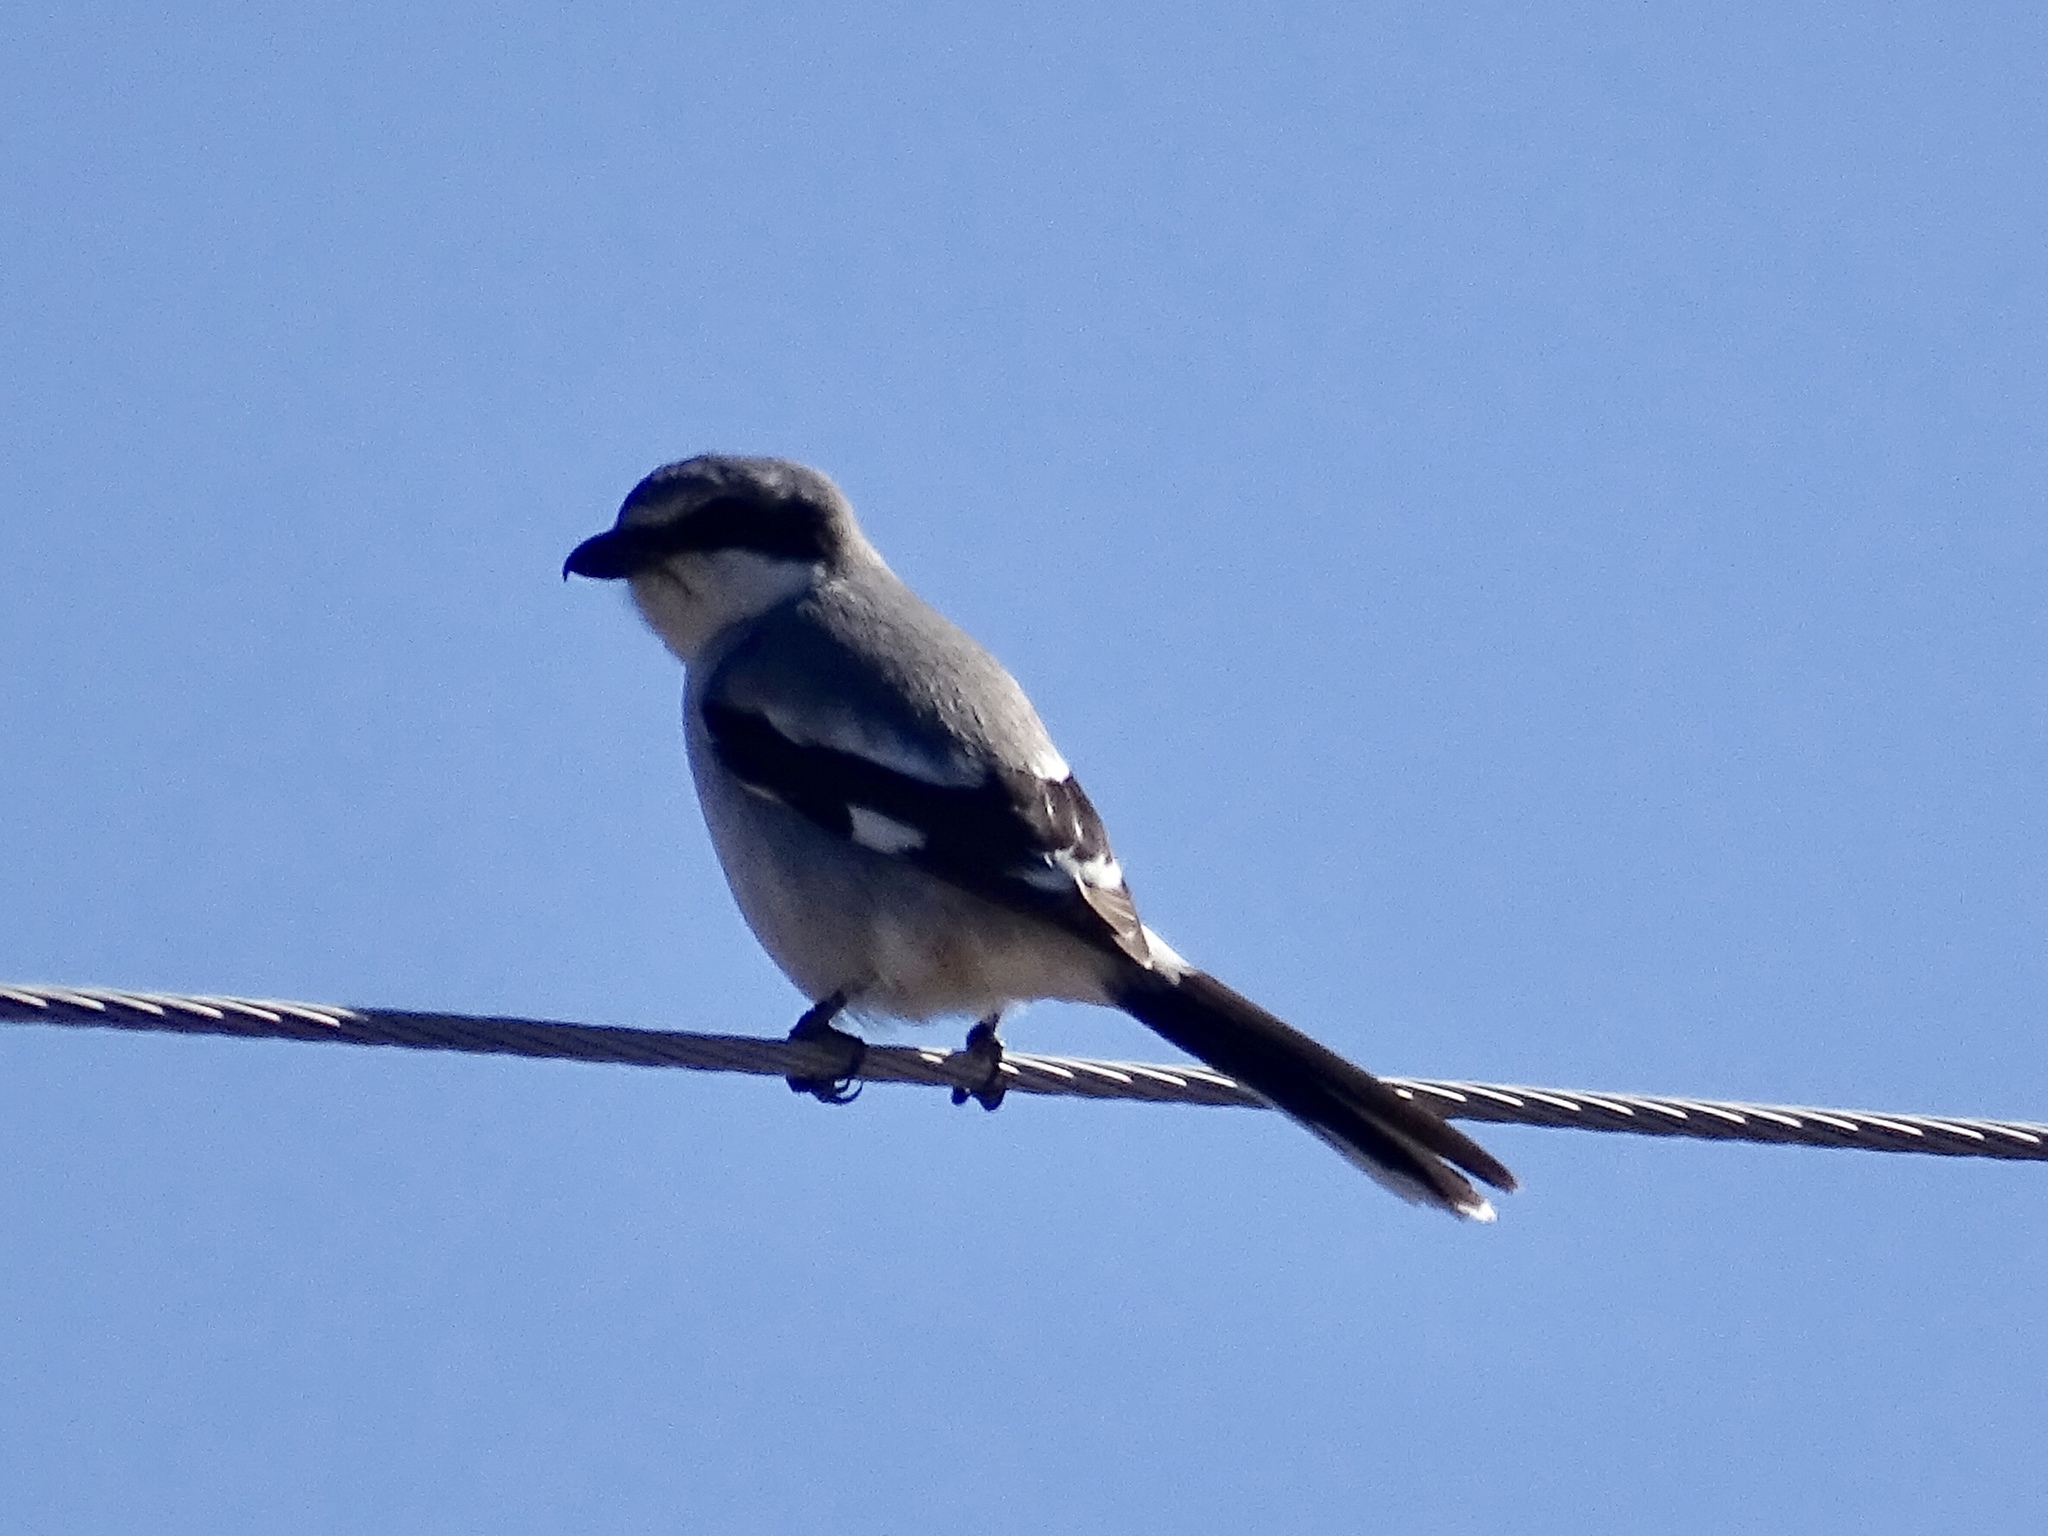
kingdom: Animalia
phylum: Chordata
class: Aves
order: Passeriformes
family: Laniidae
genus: Lanius
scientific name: Lanius ludovicianus
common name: Loggerhead shrike
